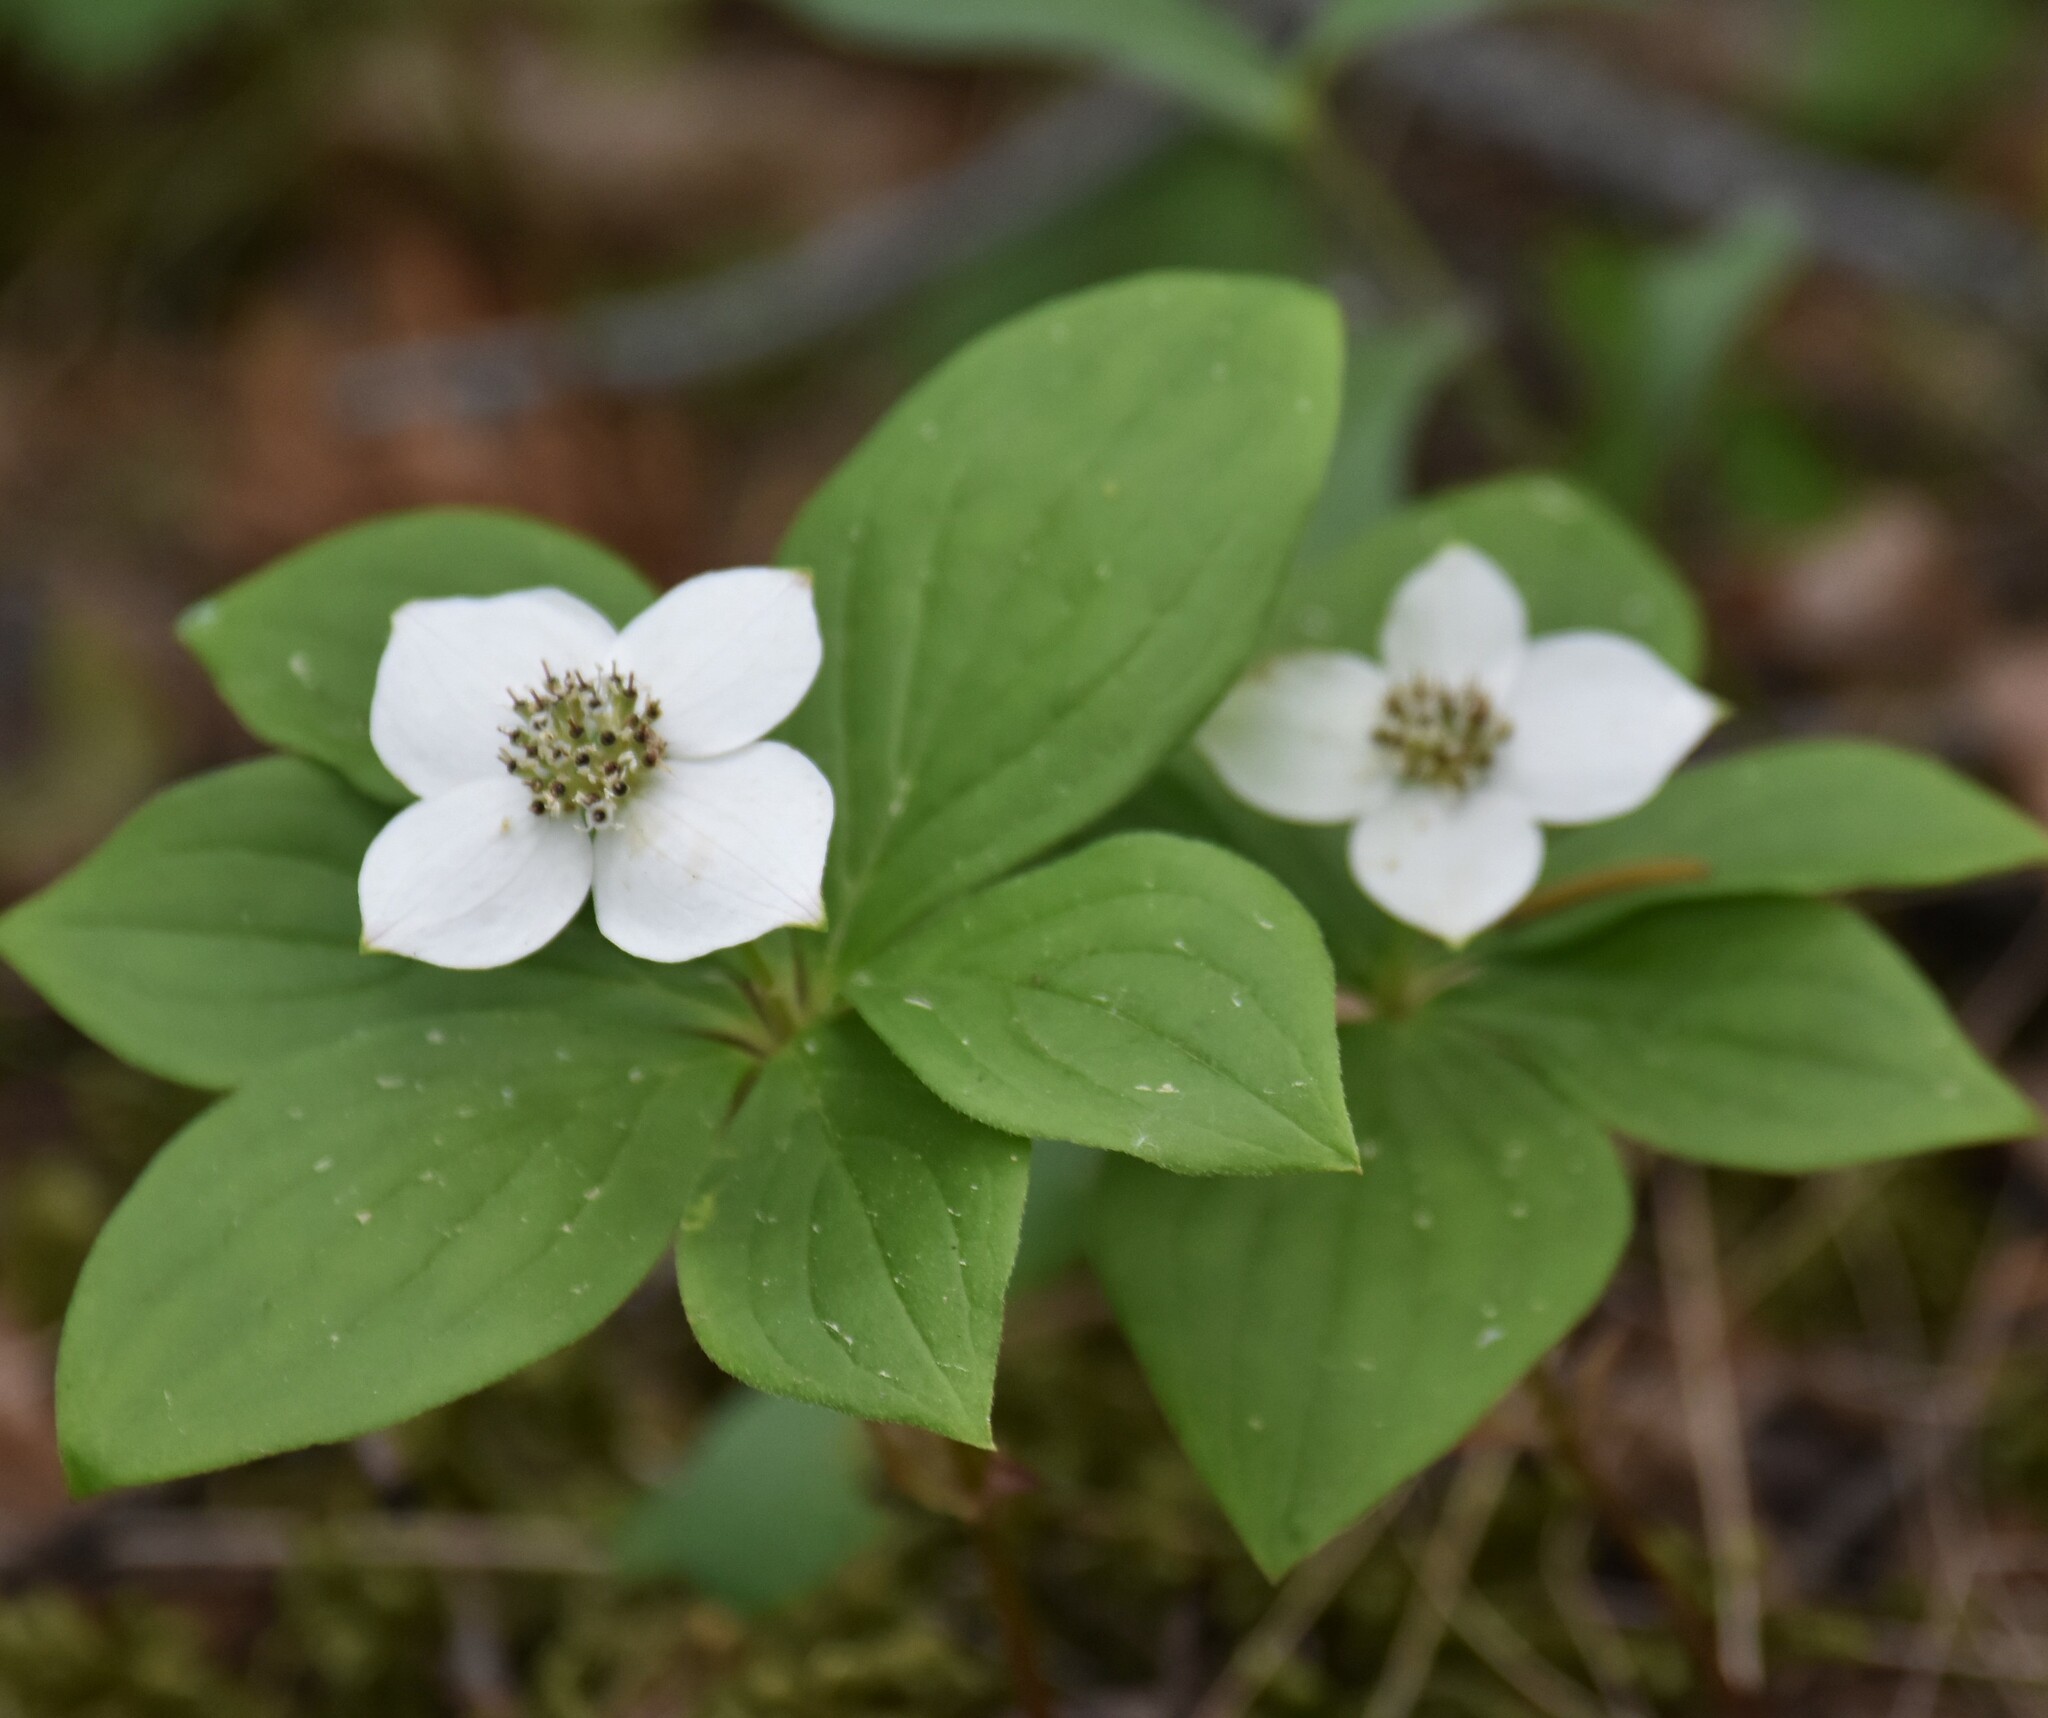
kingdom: Plantae
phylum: Tracheophyta
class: Magnoliopsida
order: Cornales
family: Cornaceae
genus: Cornus
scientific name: Cornus canadensis
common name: Creeping dogwood
